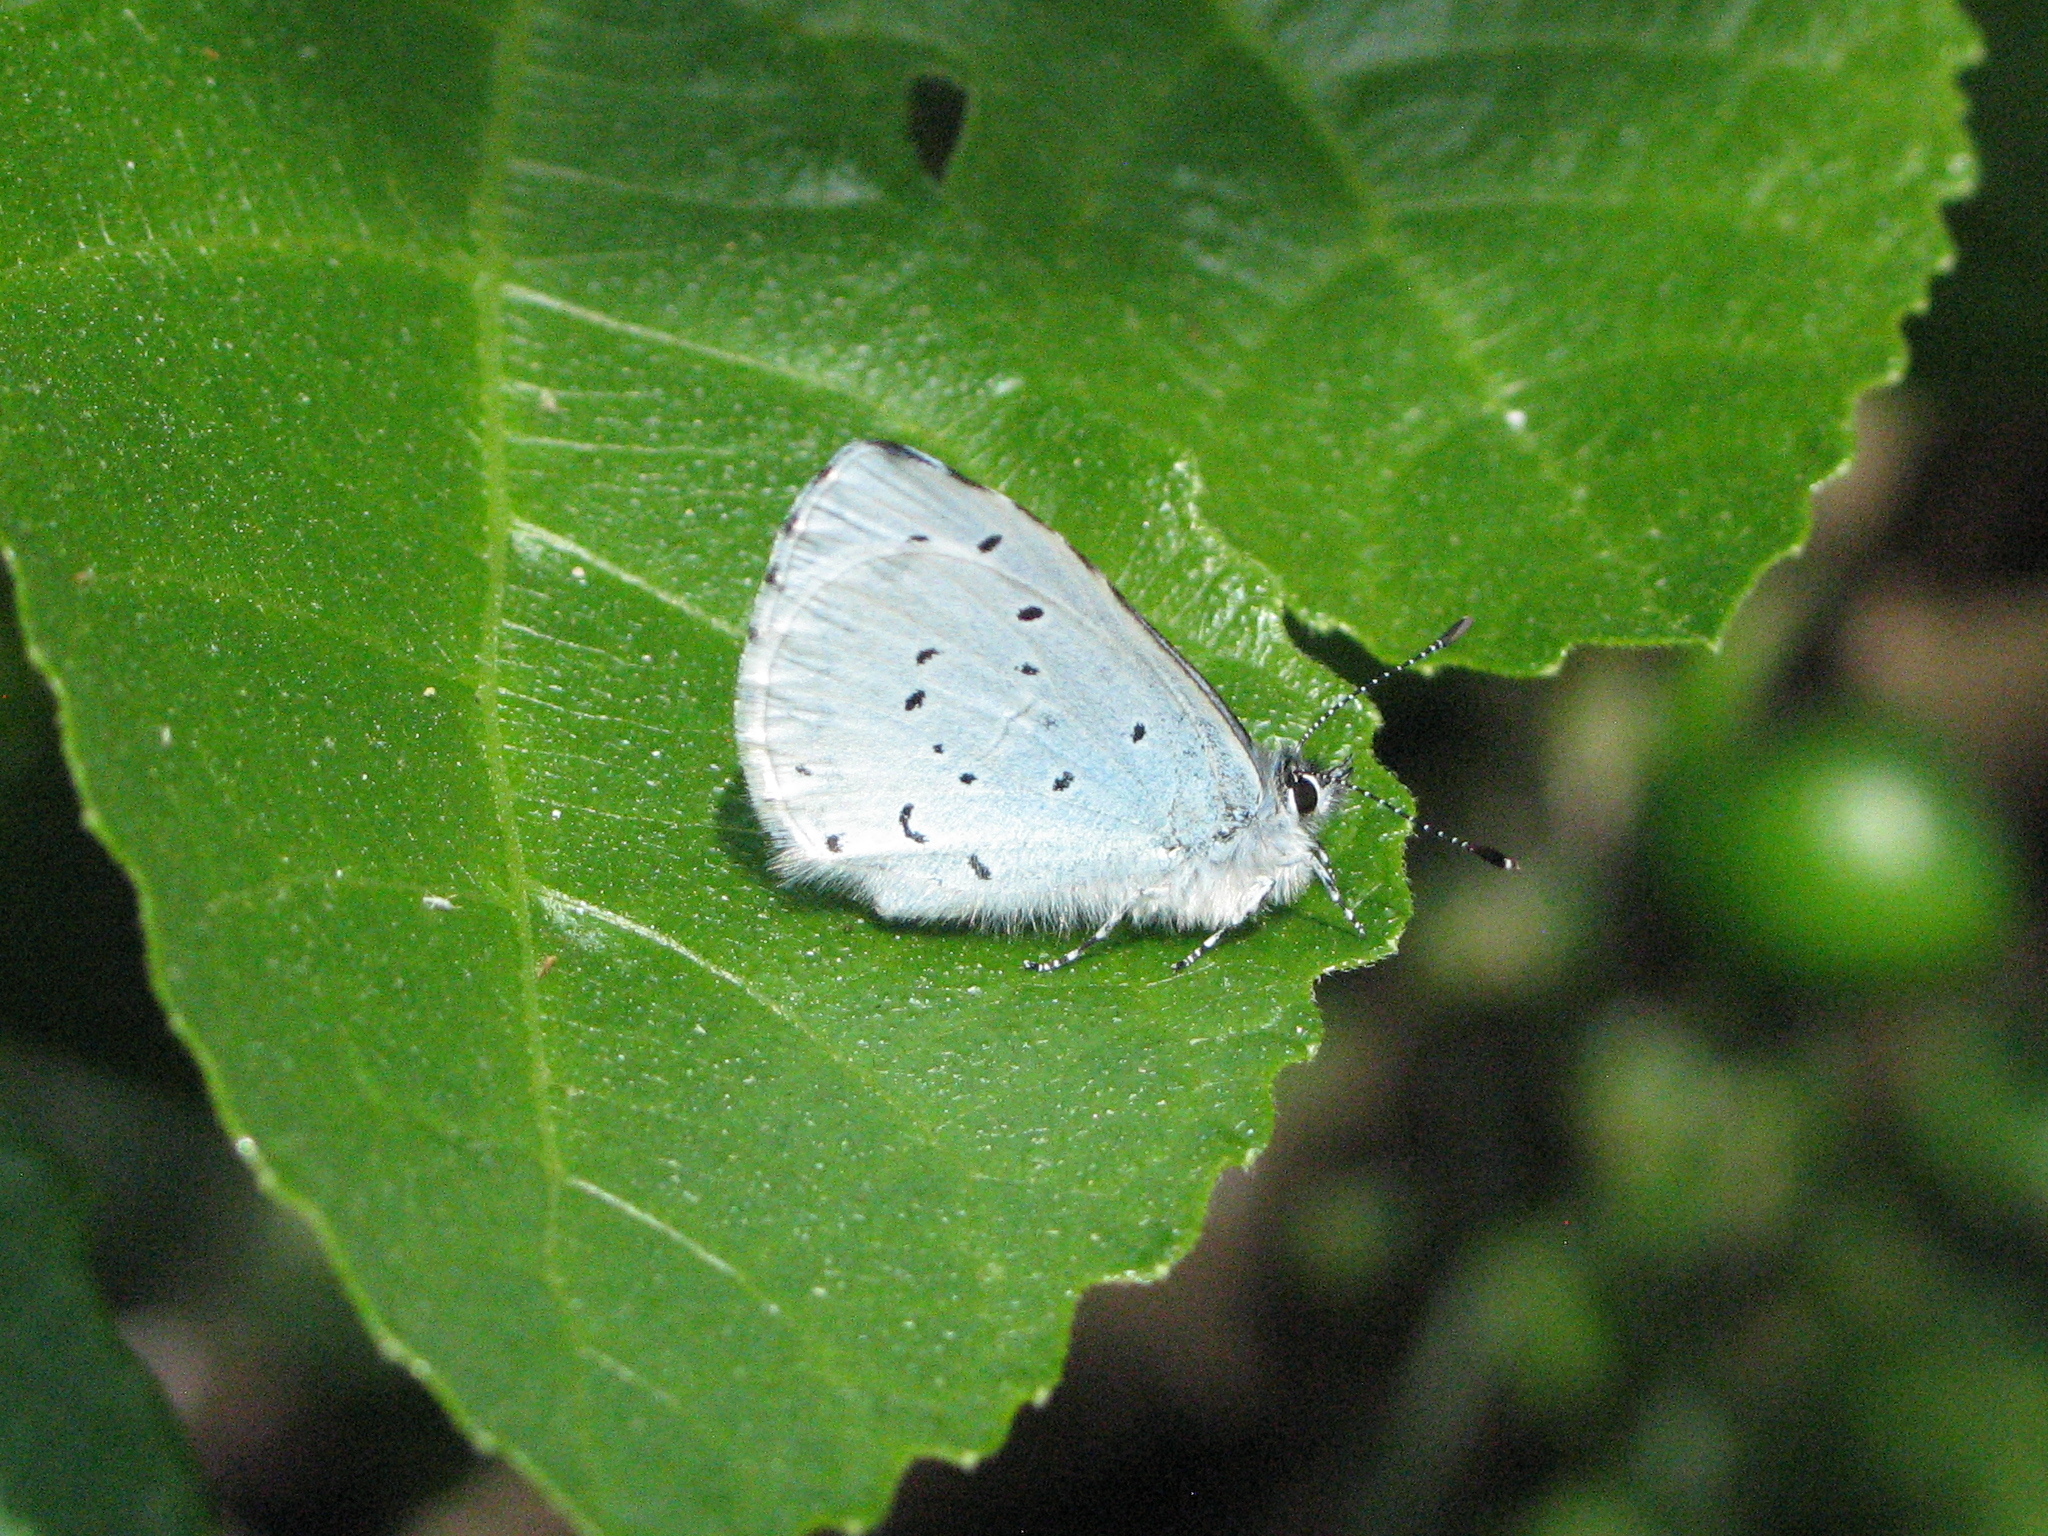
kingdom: Animalia
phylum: Arthropoda
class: Insecta
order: Lepidoptera
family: Lycaenidae
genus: Celastrina
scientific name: Celastrina argiolus
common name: Holly blue
